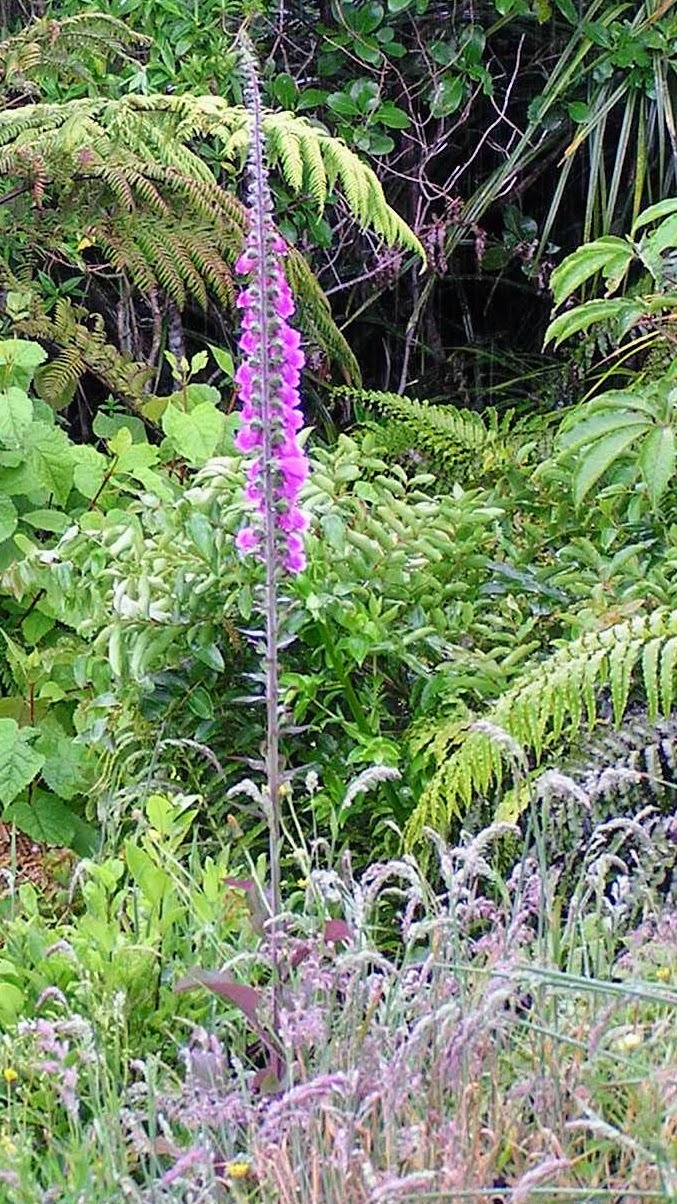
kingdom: Plantae
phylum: Tracheophyta
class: Magnoliopsida
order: Lamiales
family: Plantaginaceae
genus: Digitalis
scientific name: Digitalis purpurea
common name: Foxglove
